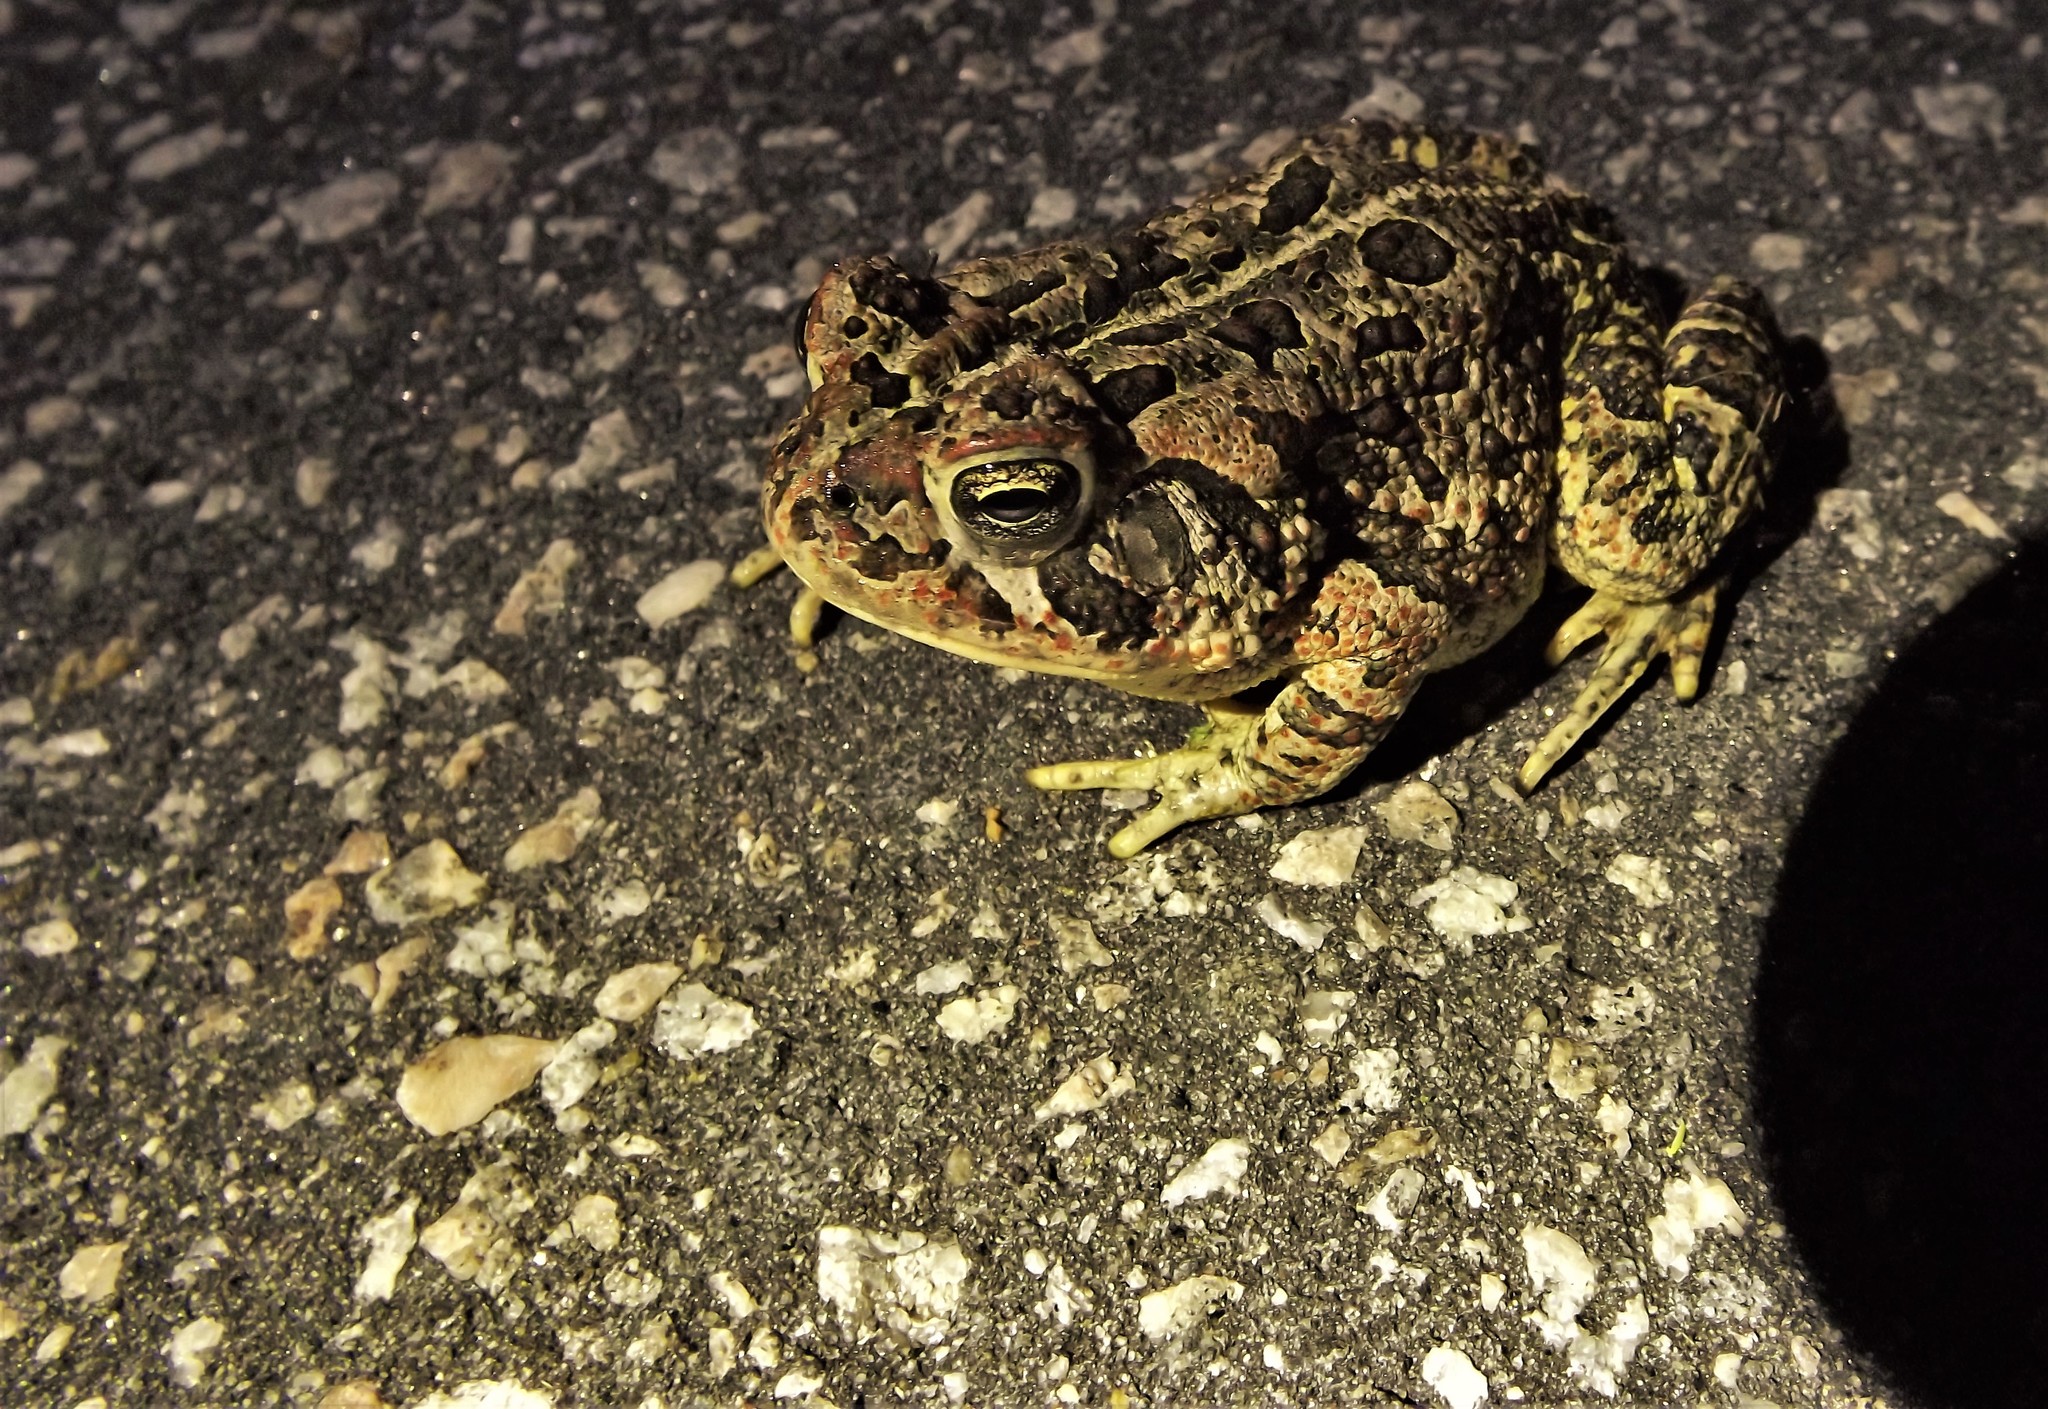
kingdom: Animalia
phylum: Chordata
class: Amphibia
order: Anura
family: Bufonidae
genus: Anaxyrus
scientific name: Anaxyrus fowleri
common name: Fowler's toad
